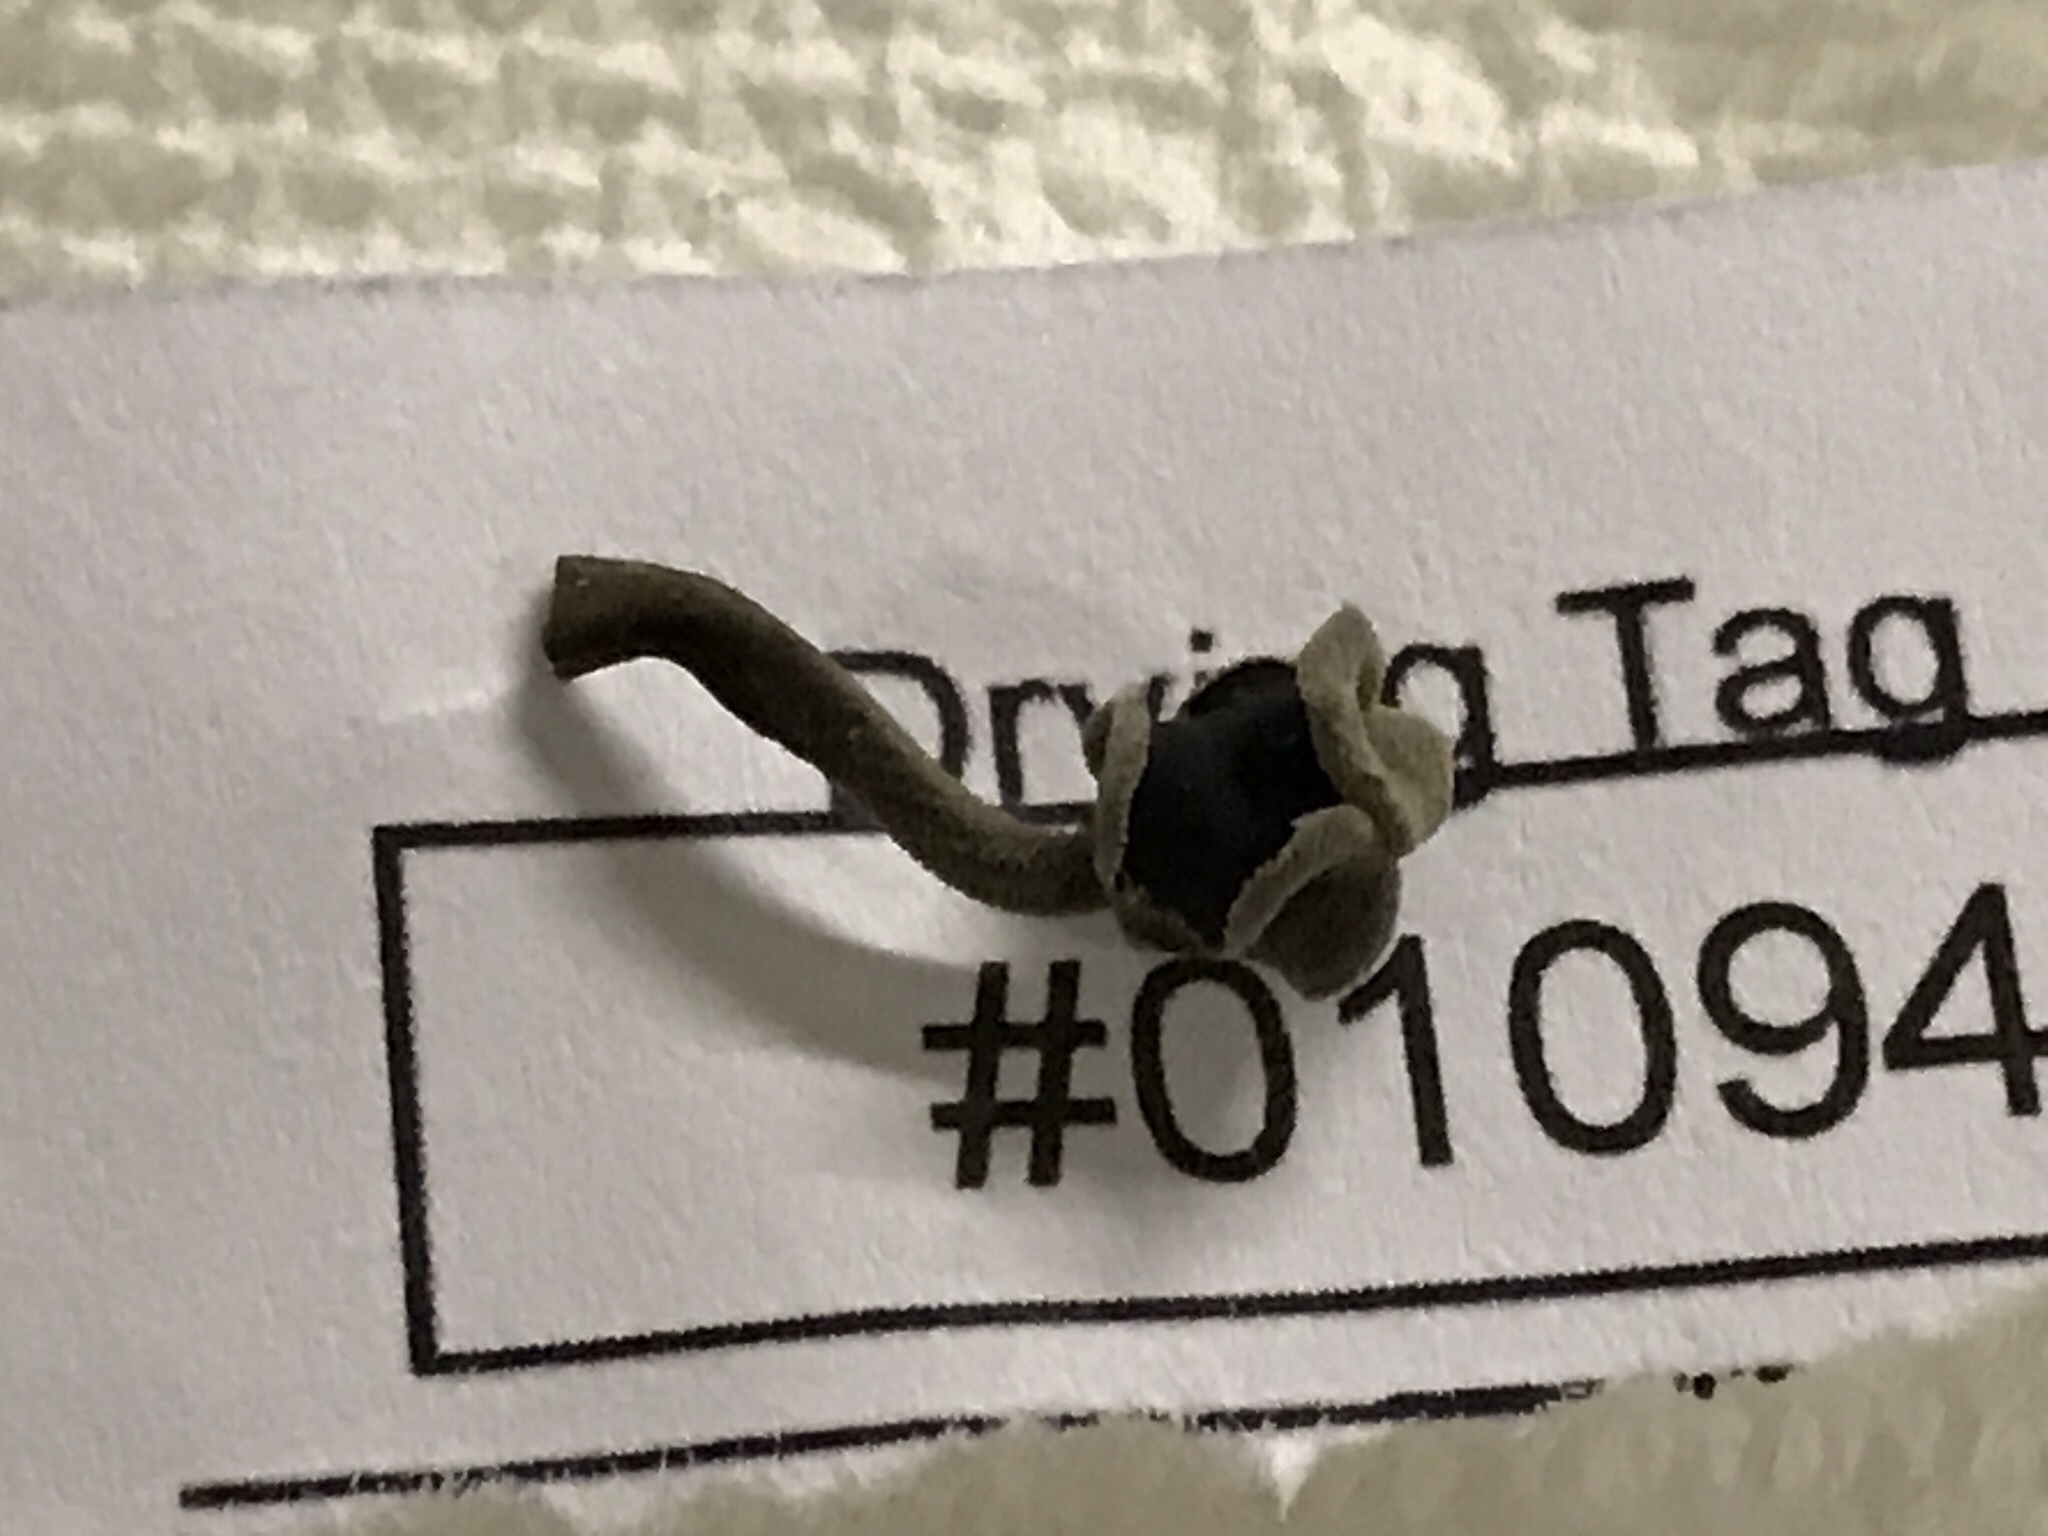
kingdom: Fungi
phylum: Ascomycota
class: Pezizomycetes
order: Pezizales
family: Helvellaceae
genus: Helvella
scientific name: Helvella pezizoides
